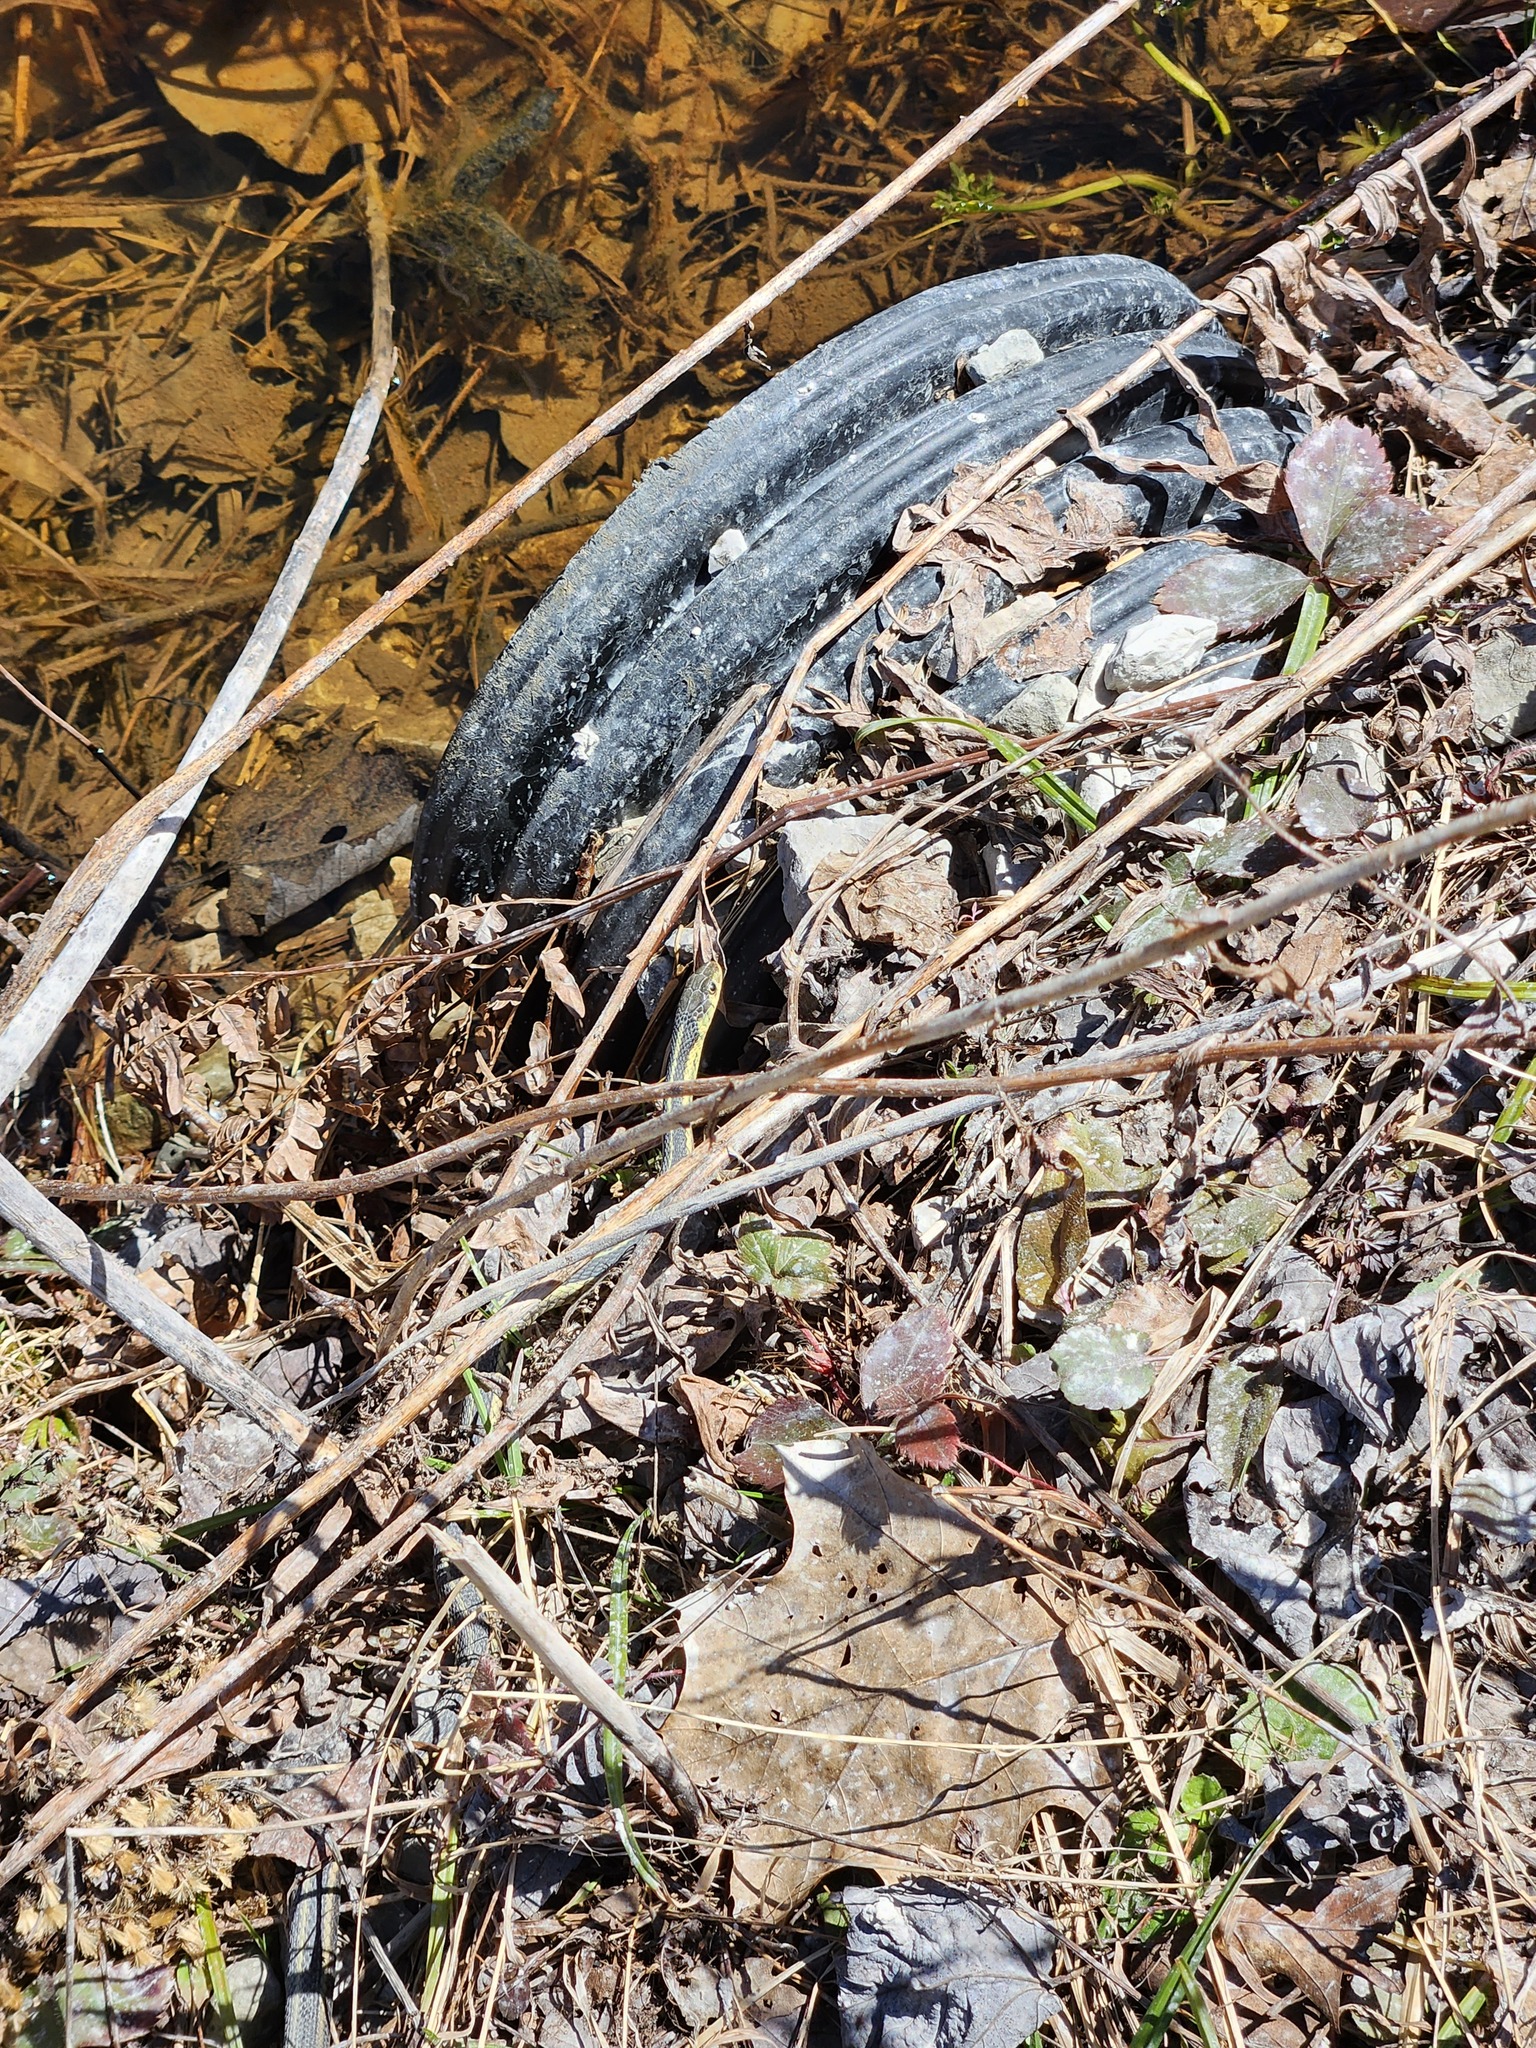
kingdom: Animalia
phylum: Chordata
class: Squamata
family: Colubridae
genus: Thamnophis
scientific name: Thamnophis sirtalis
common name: Common garter snake
